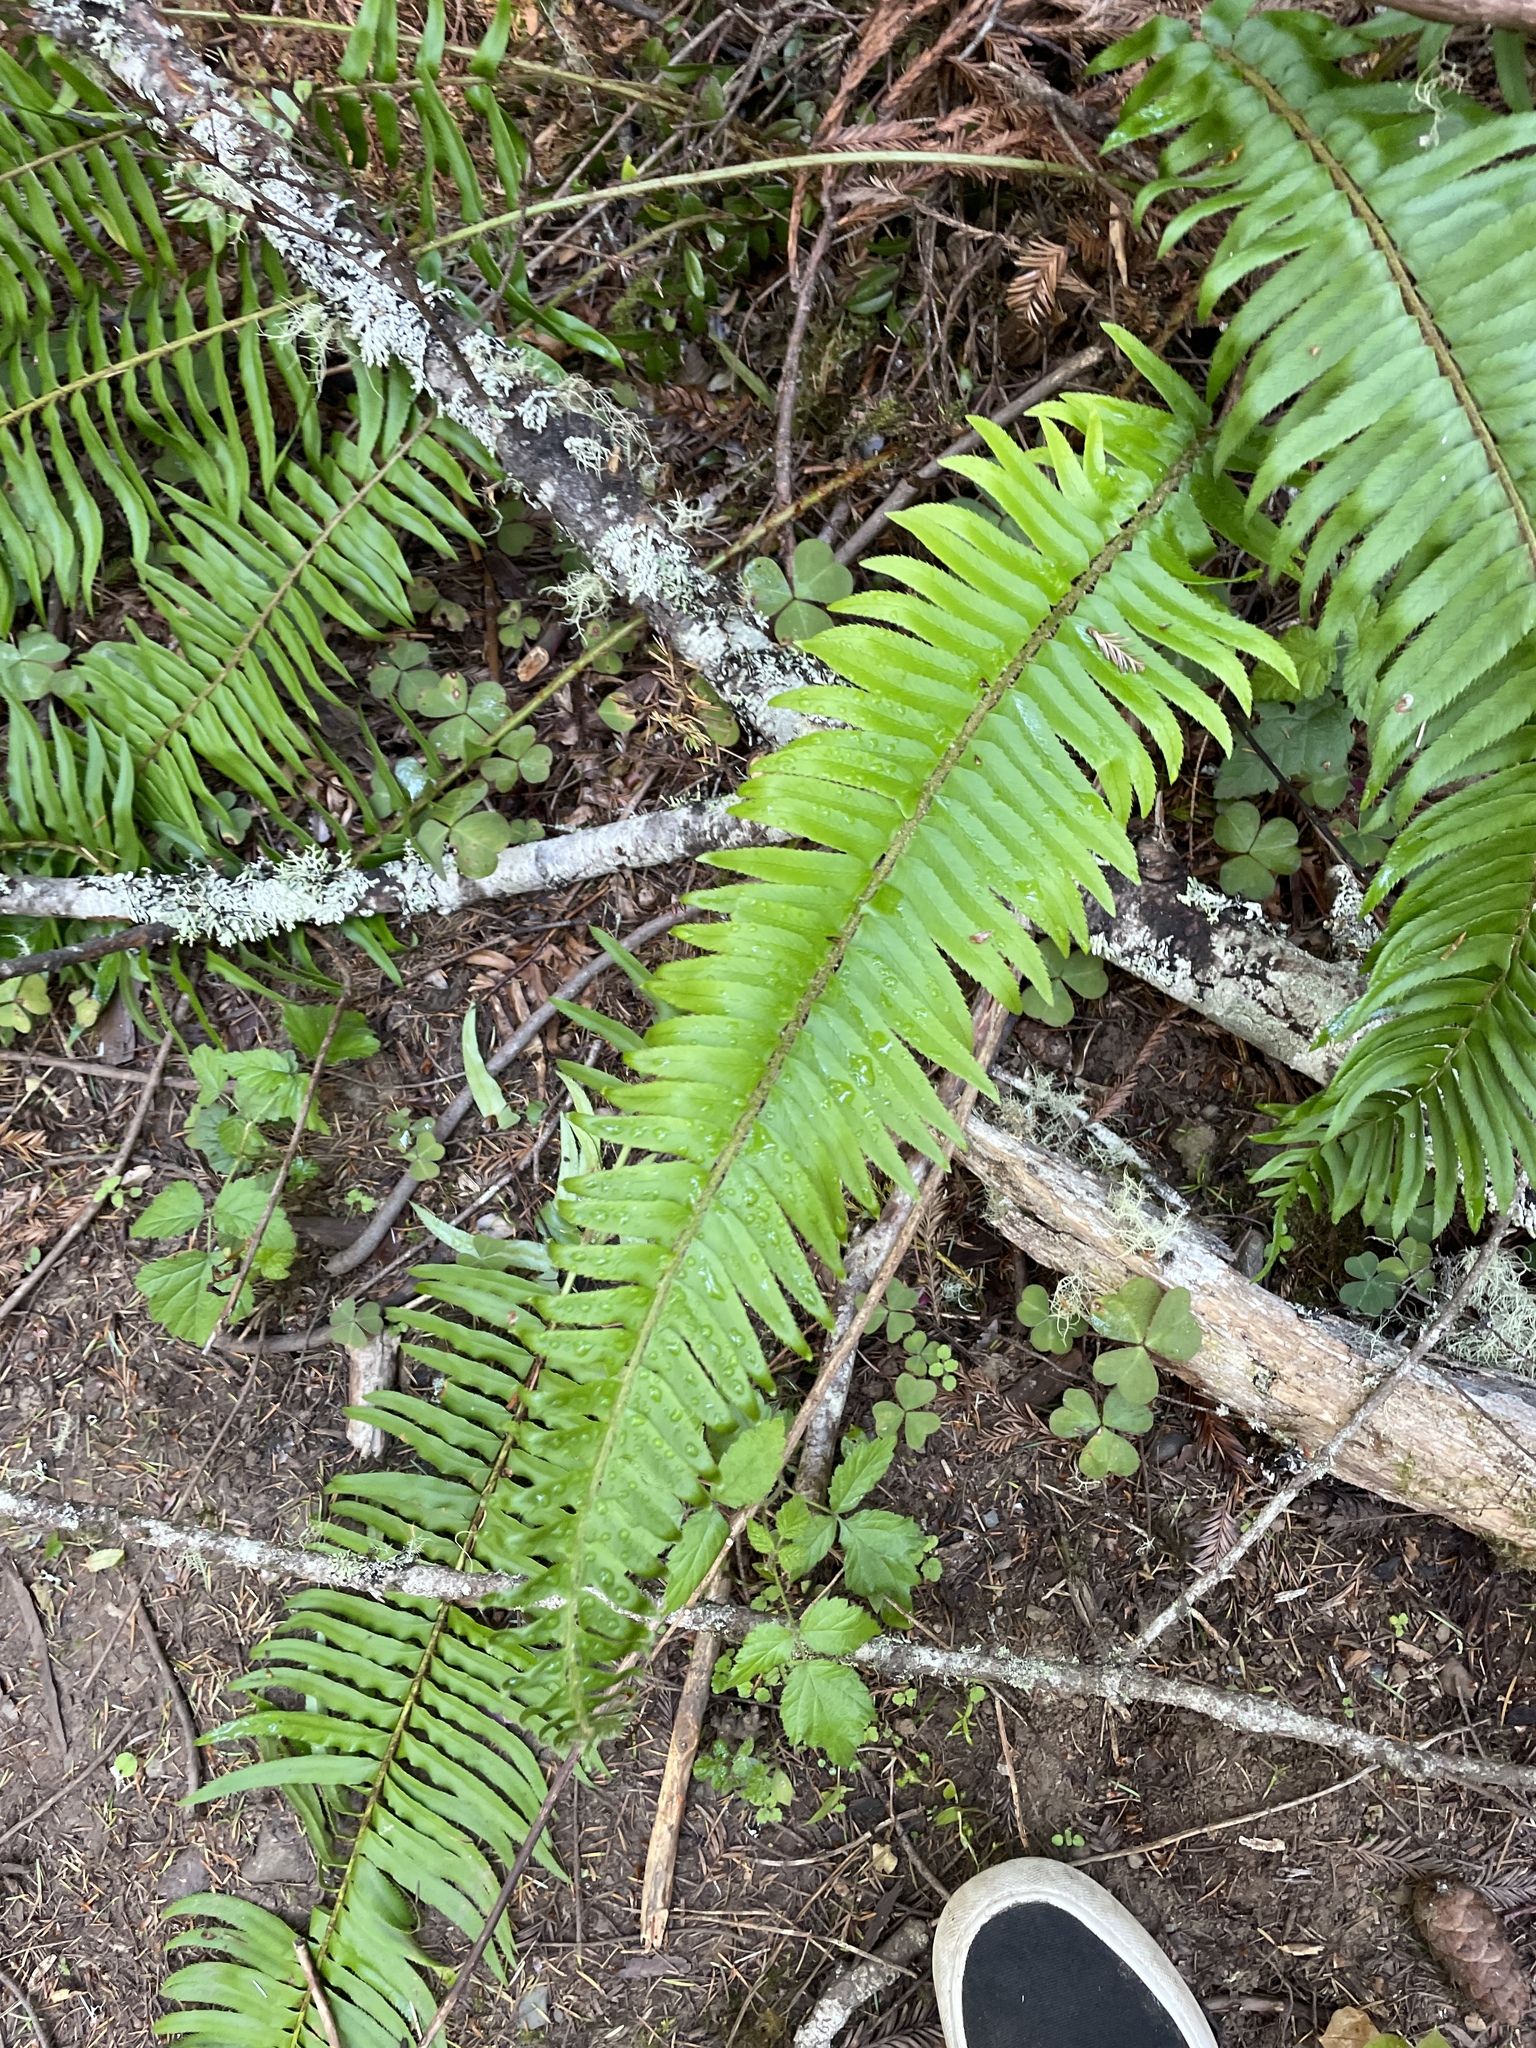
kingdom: Plantae
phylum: Tracheophyta
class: Polypodiopsida
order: Polypodiales
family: Dryopteridaceae
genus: Polystichum
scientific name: Polystichum munitum
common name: Western sword-fern
